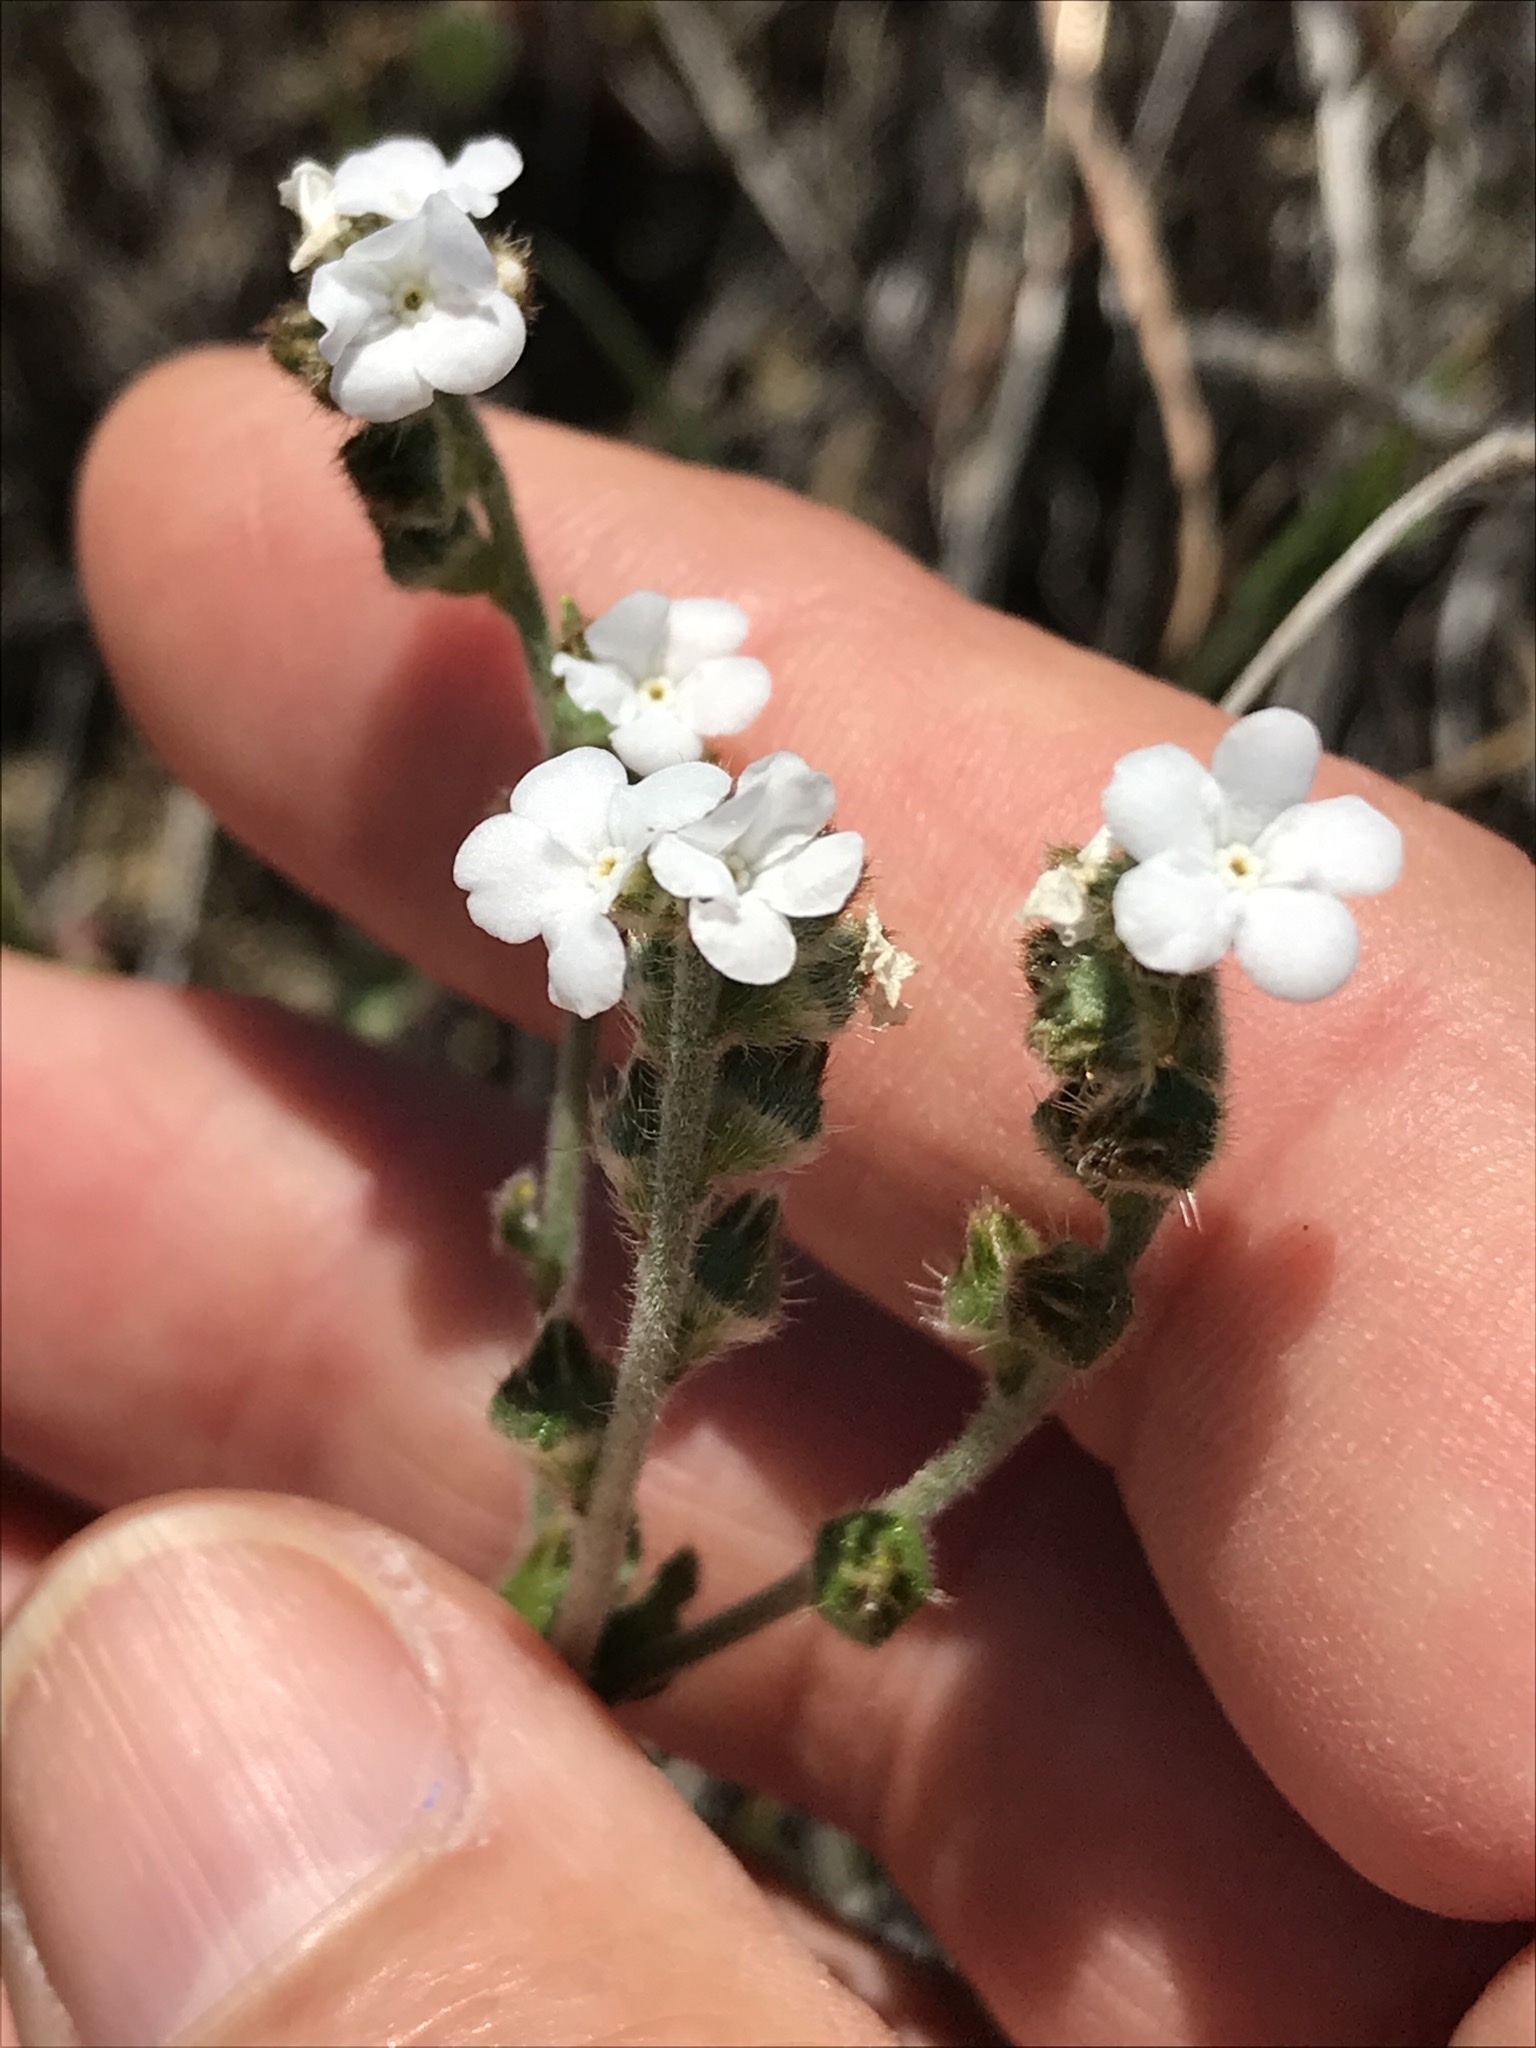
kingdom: Plantae
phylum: Tracheophyta
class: Magnoliopsida
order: Boraginales
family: Boraginaceae
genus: Plagiobothrys
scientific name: Plagiobothrys nothofulvus
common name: Popcorn-flower
